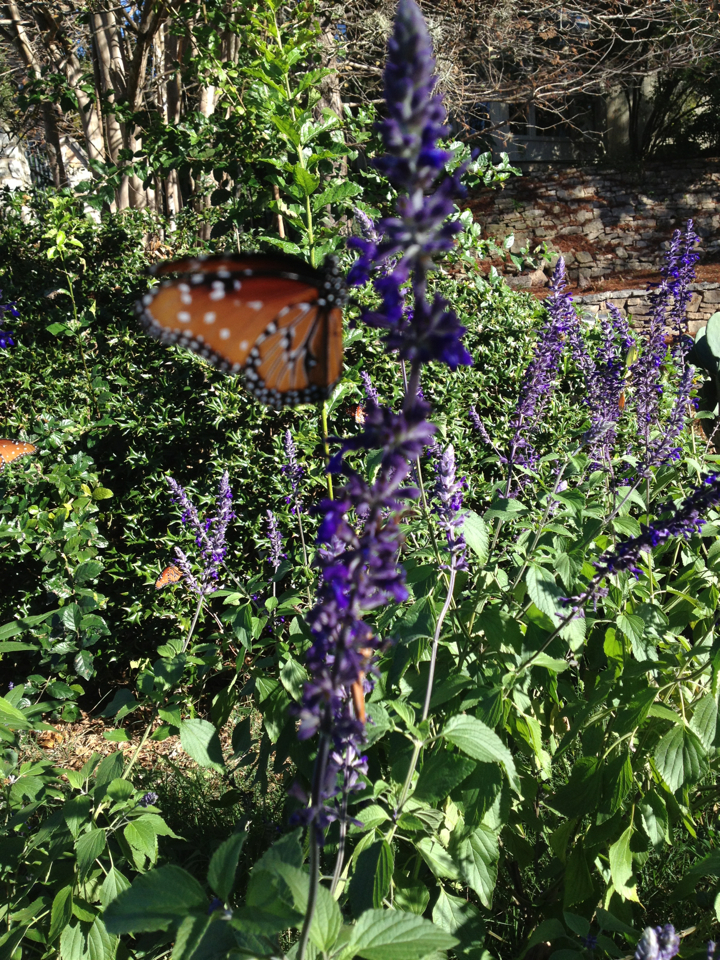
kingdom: Animalia
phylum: Arthropoda
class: Insecta
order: Lepidoptera
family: Nymphalidae
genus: Danaus
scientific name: Danaus gilippus
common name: Queen
